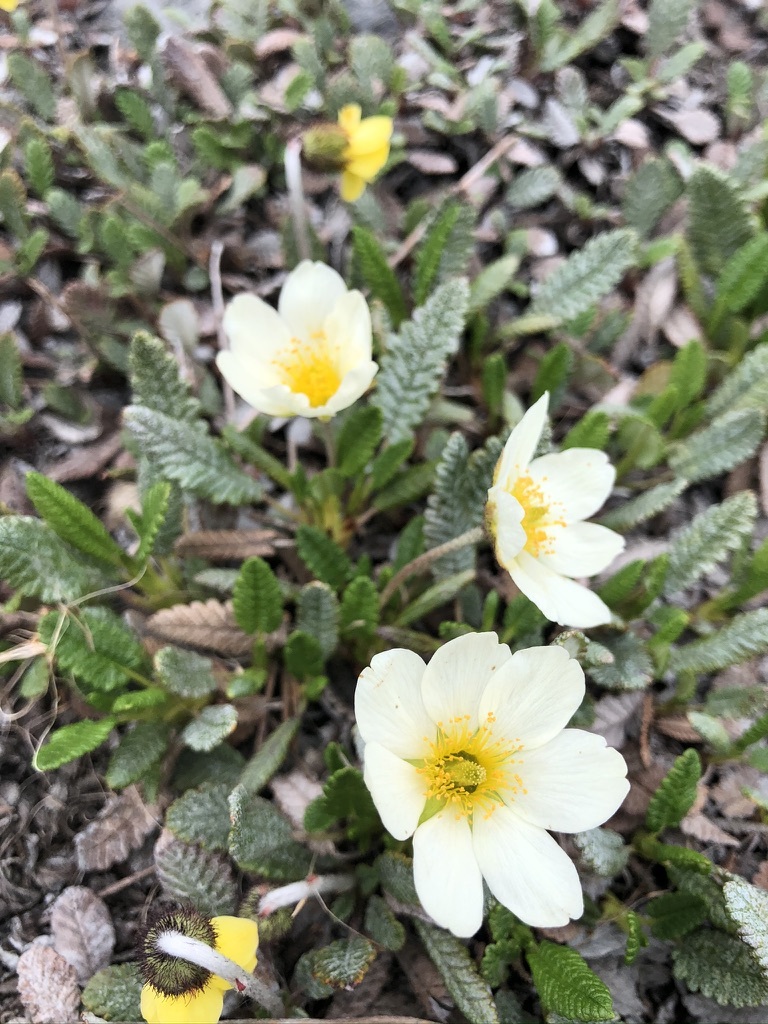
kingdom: Plantae
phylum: Tracheophyta
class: Magnoliopsida
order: Rosales
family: Rosaceae
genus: Dryas
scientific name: Dryas octopetala
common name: Eight-petal mountain-avens
